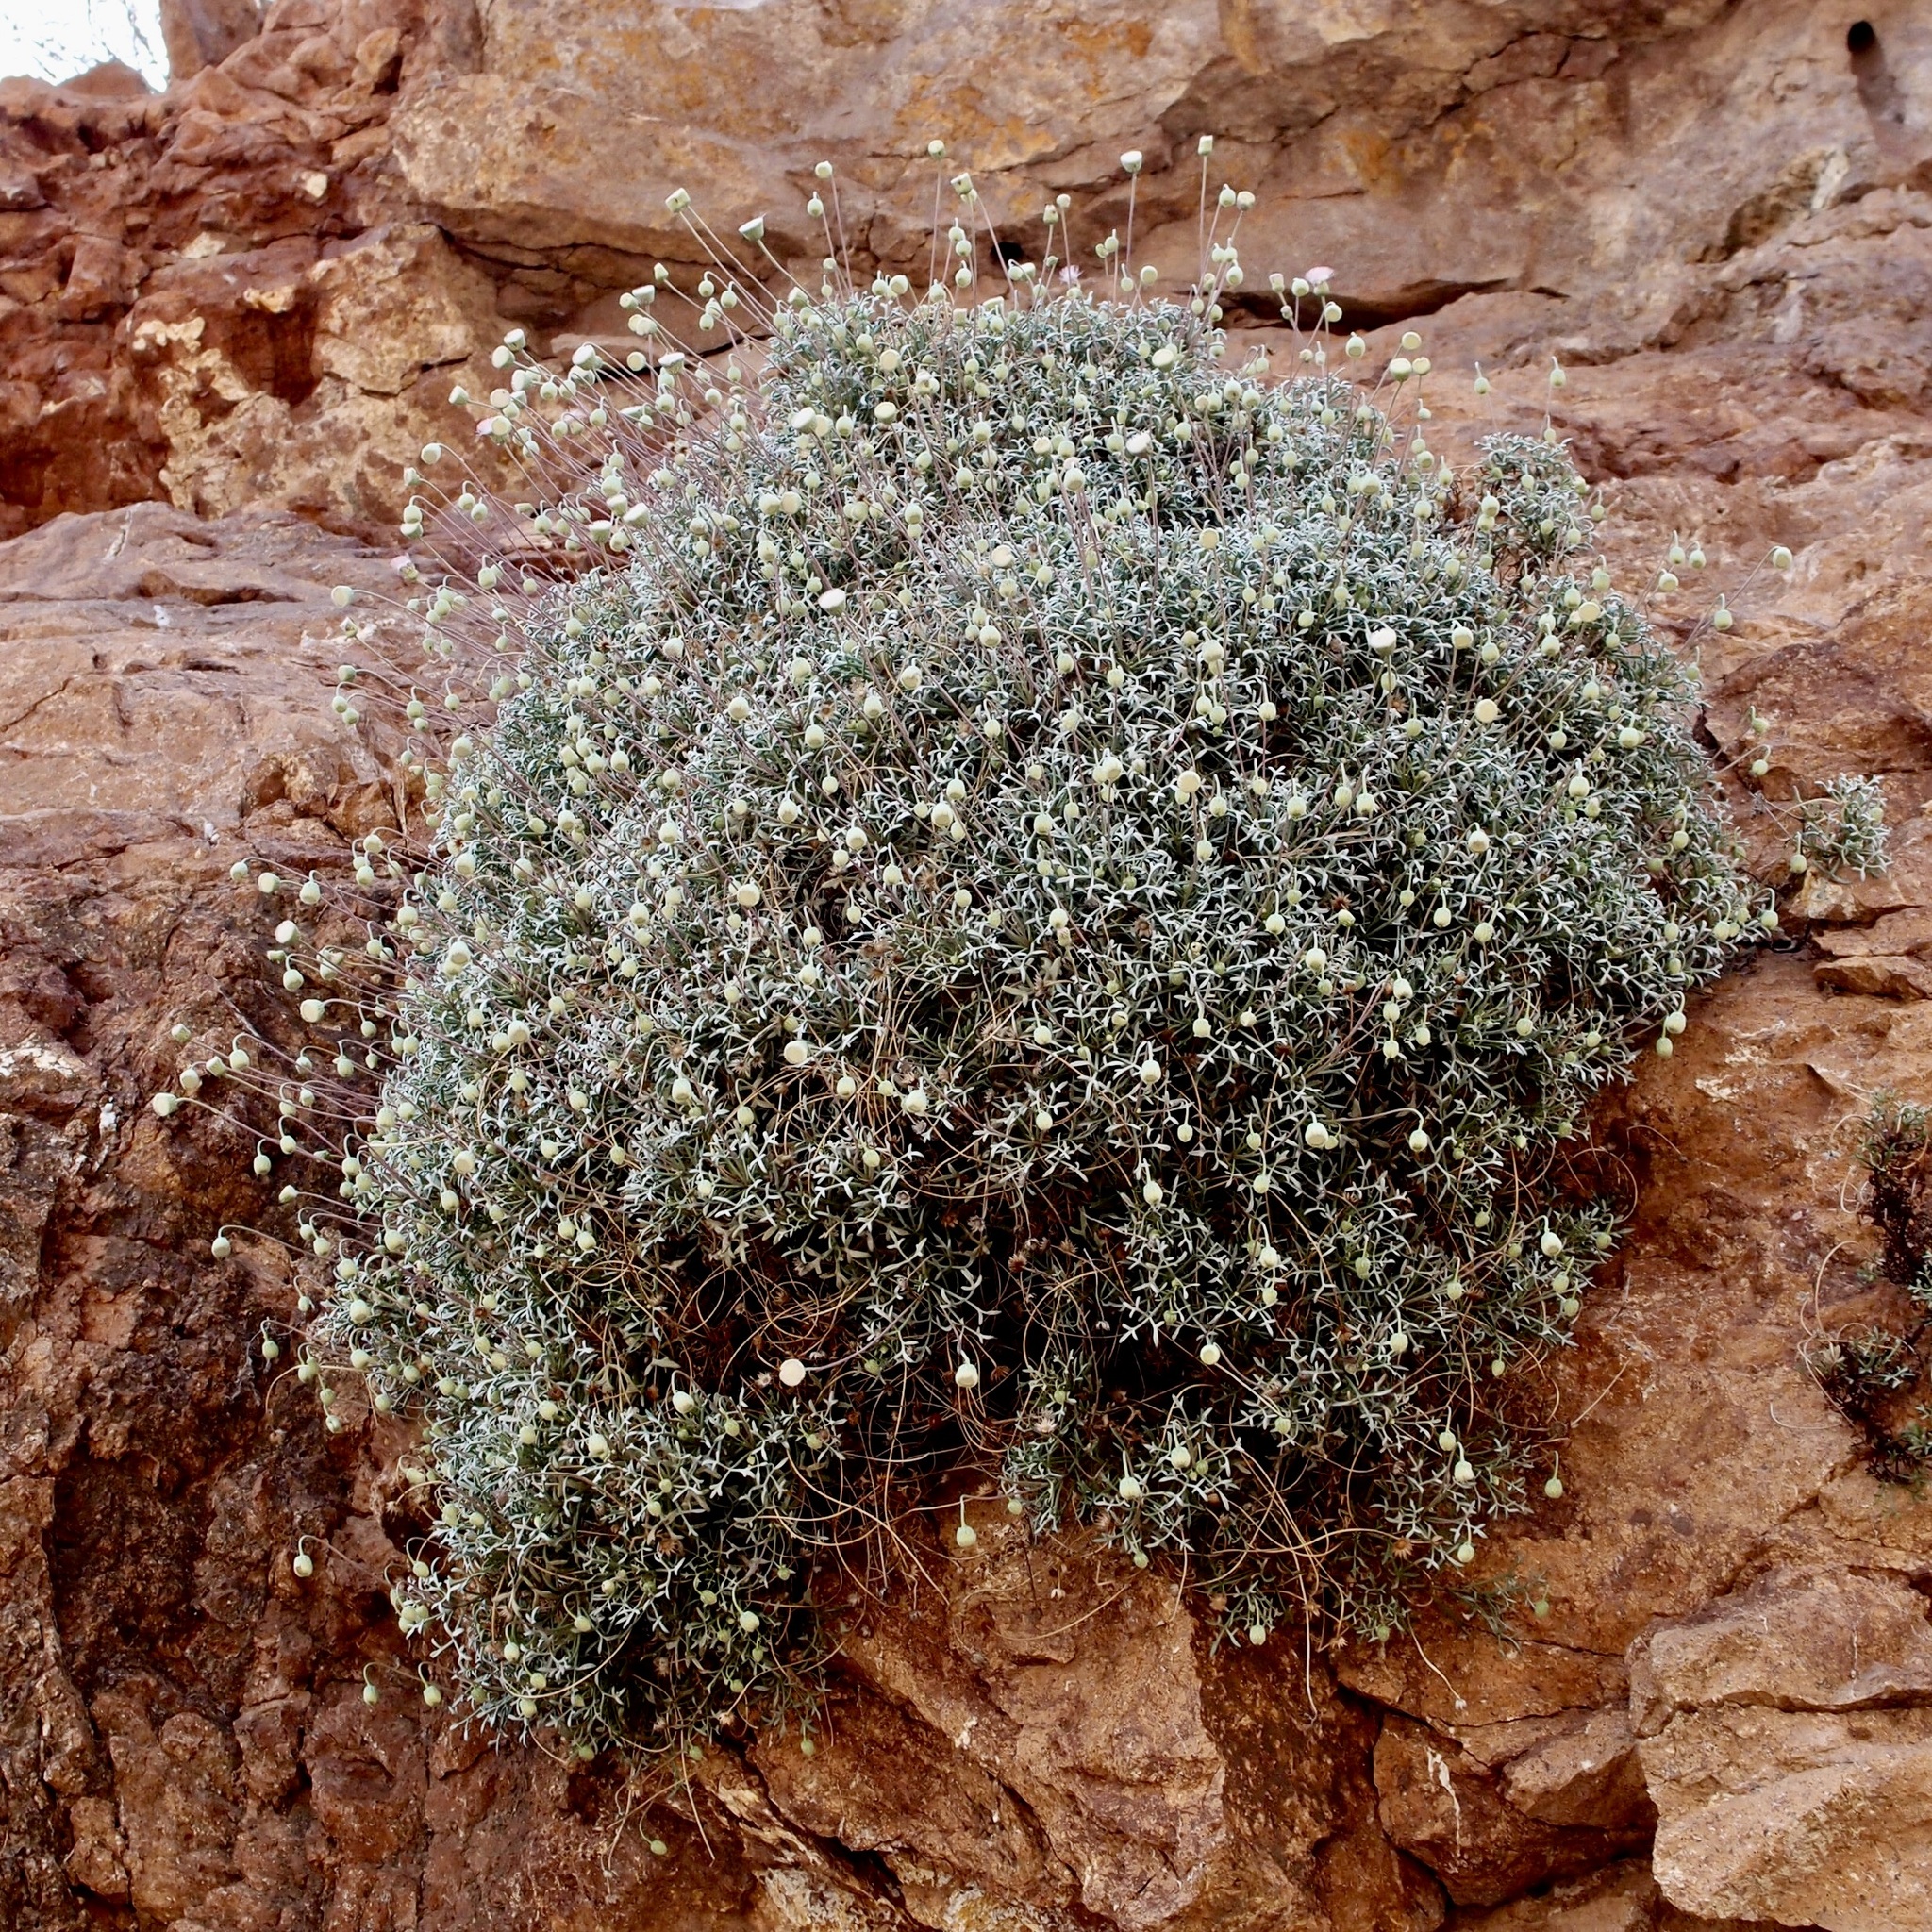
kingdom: Plantae
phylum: Tracheophyta
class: Magnoliopsida
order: Asterales
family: Asteraceae
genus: Hofmeisteria
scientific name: Hofmeisteria crassifolia
